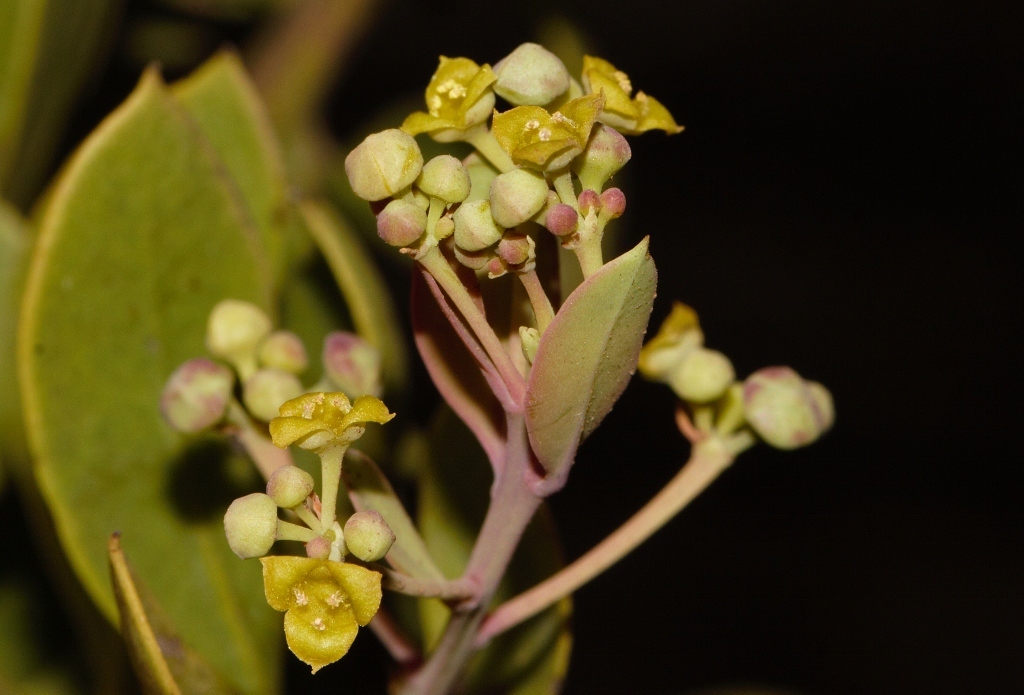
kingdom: Plantae
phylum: Tracheophyta
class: Magnoliopsida
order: Santalales
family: Santalaceae
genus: Osyris
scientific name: Osyris lanceolata
